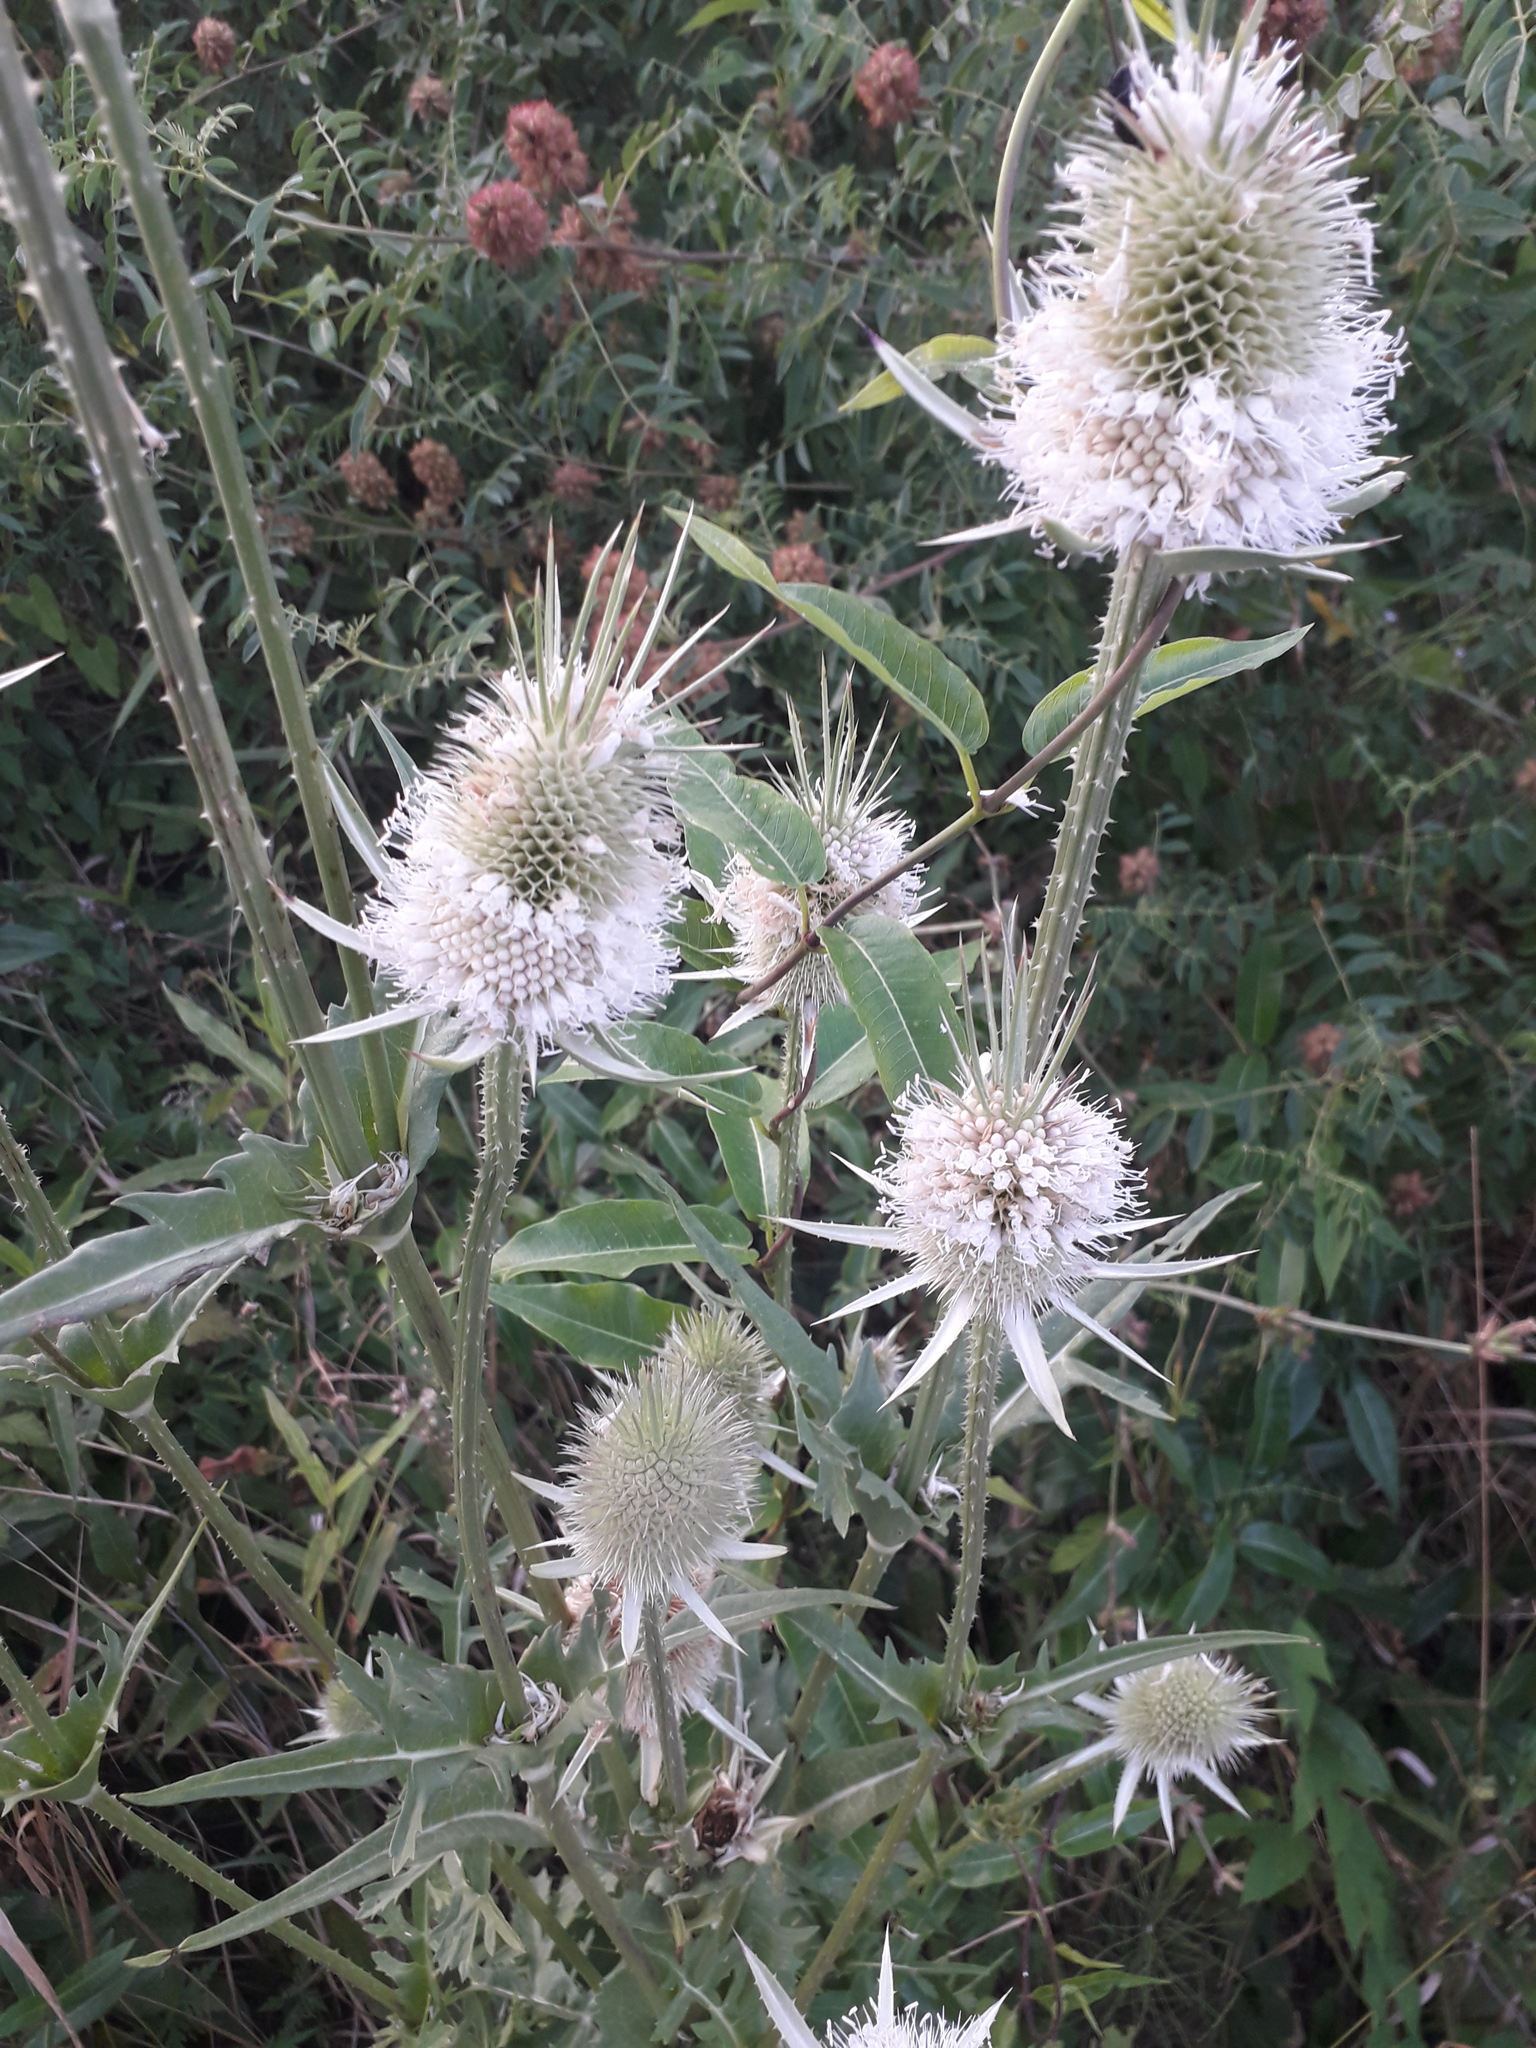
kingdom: Plantae
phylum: Tracheophyta
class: Magnoliopsida
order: Dipsacales
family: Caprifoliaceae
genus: Dipsacus
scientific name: Dipsacus laciniatus
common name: Cut-leaved teasel
